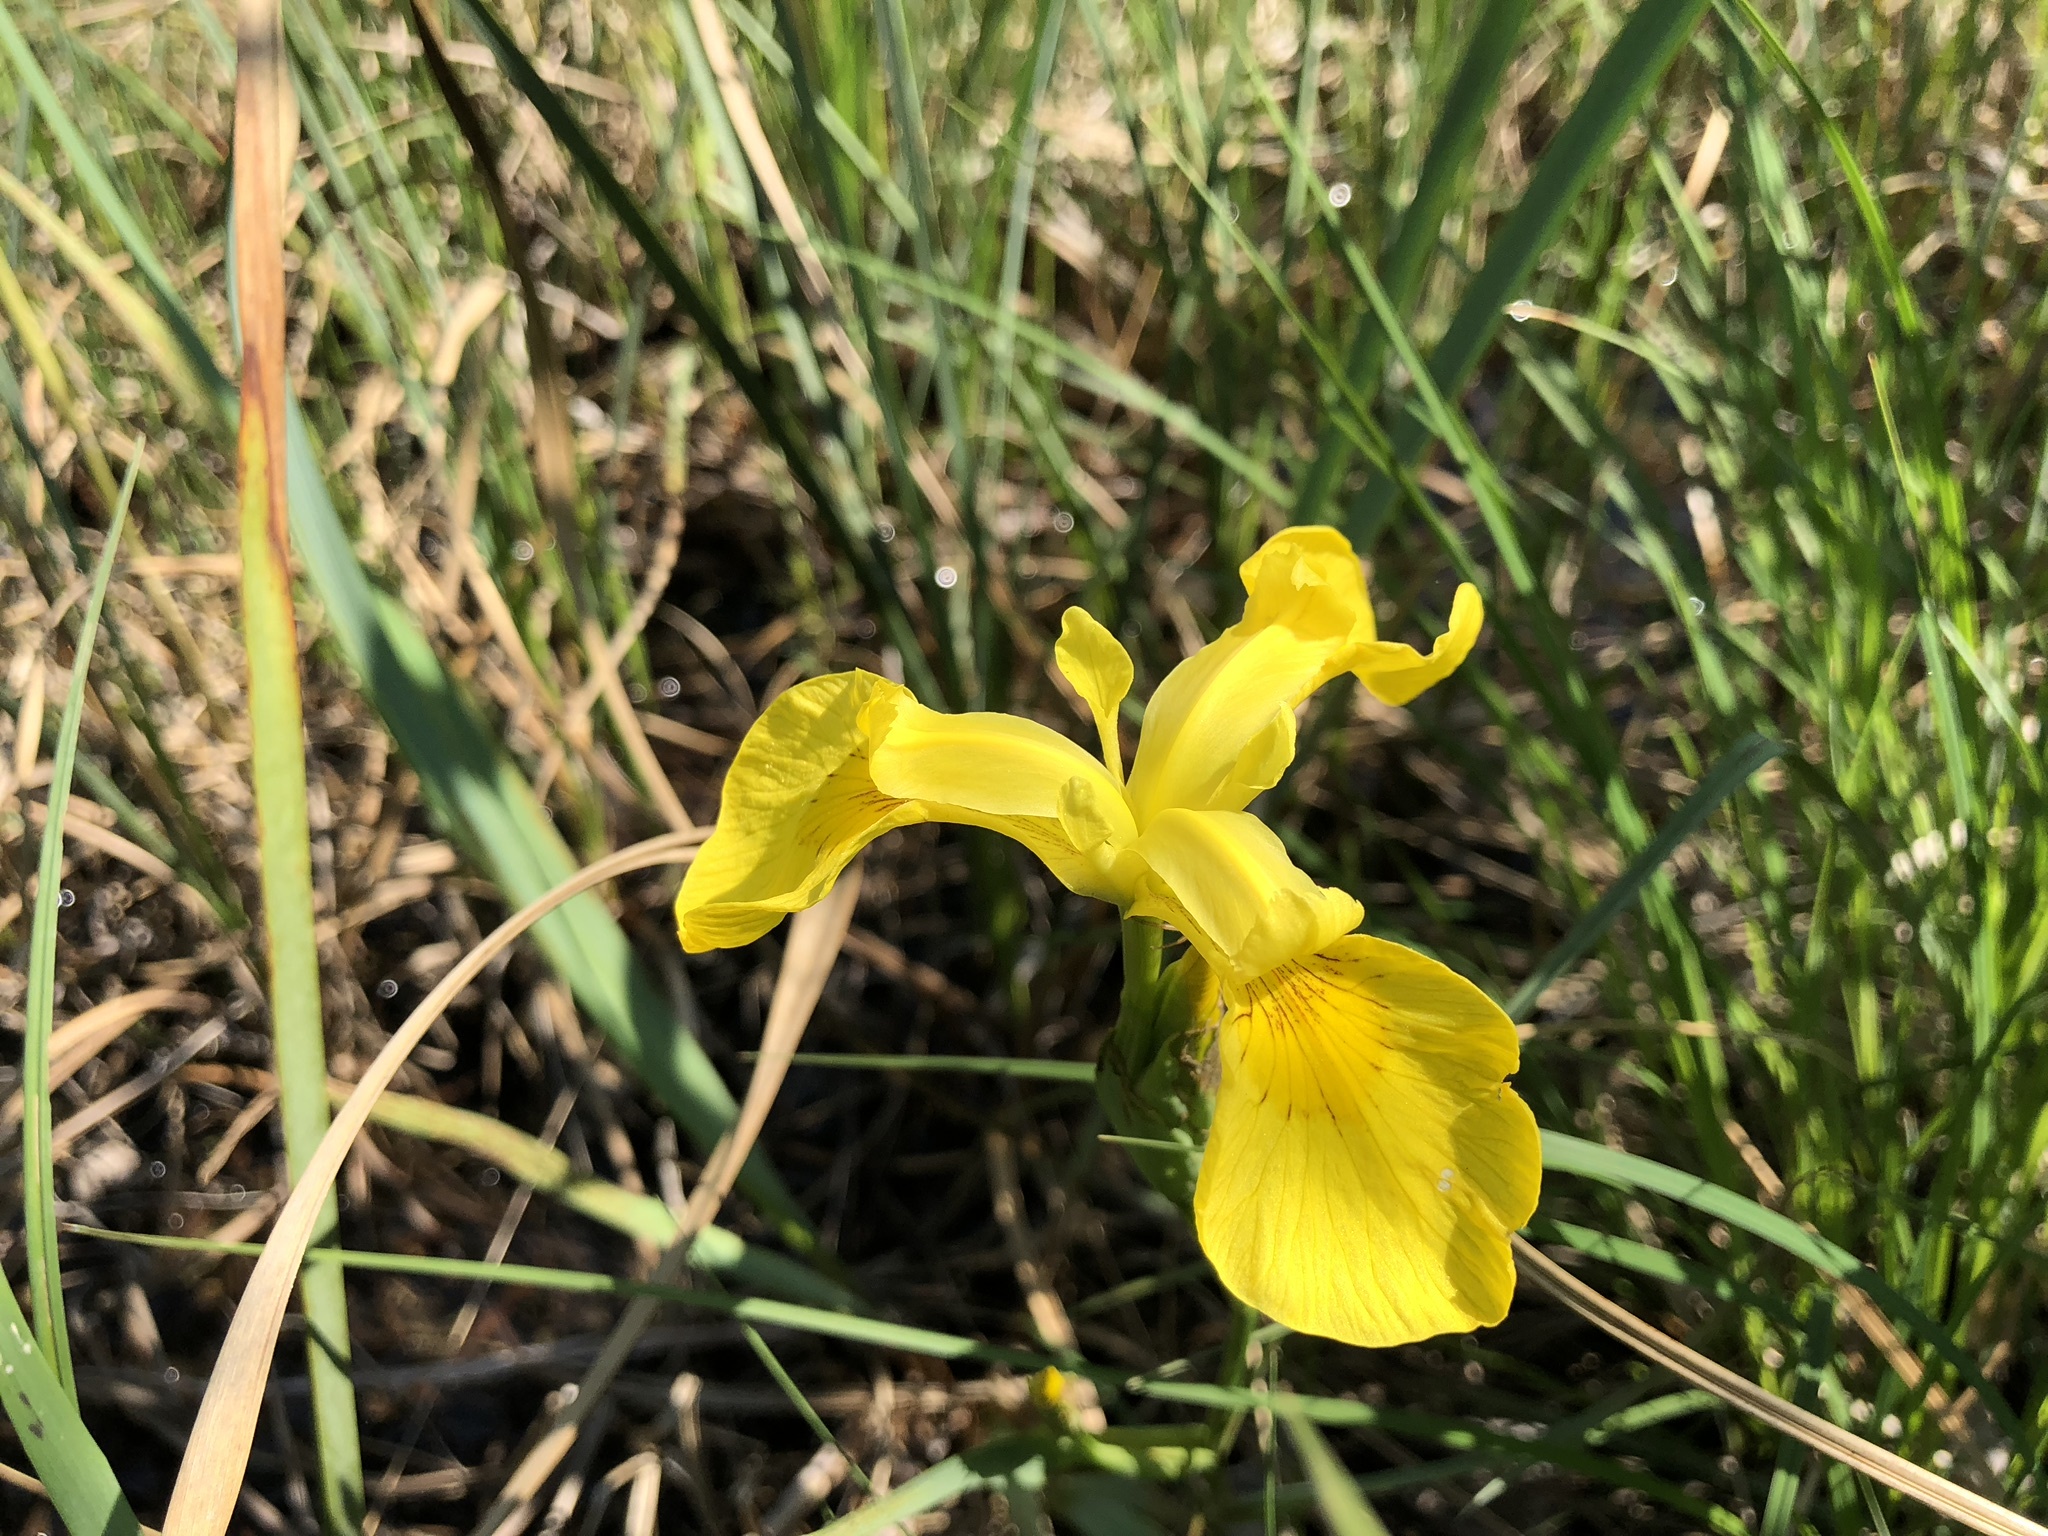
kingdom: Plantae
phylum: Tracheophyta
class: Liliopsida
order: Asparagales
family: Iridaceae
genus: Iris
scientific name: Iris pseudacorus
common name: Yellow flag
